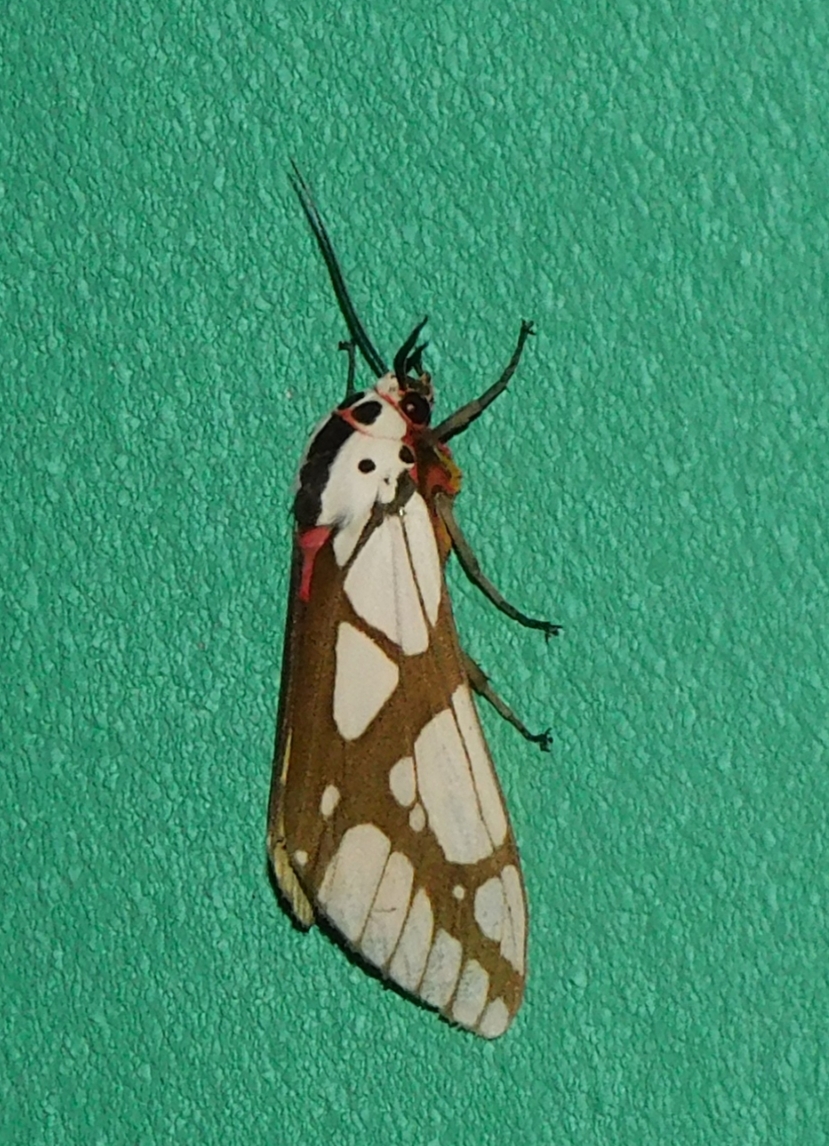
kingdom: Animalia
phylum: Arthropoda
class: Insecta
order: Lepidoptera
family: Erebidae
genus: Areas
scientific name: Areas galactina
